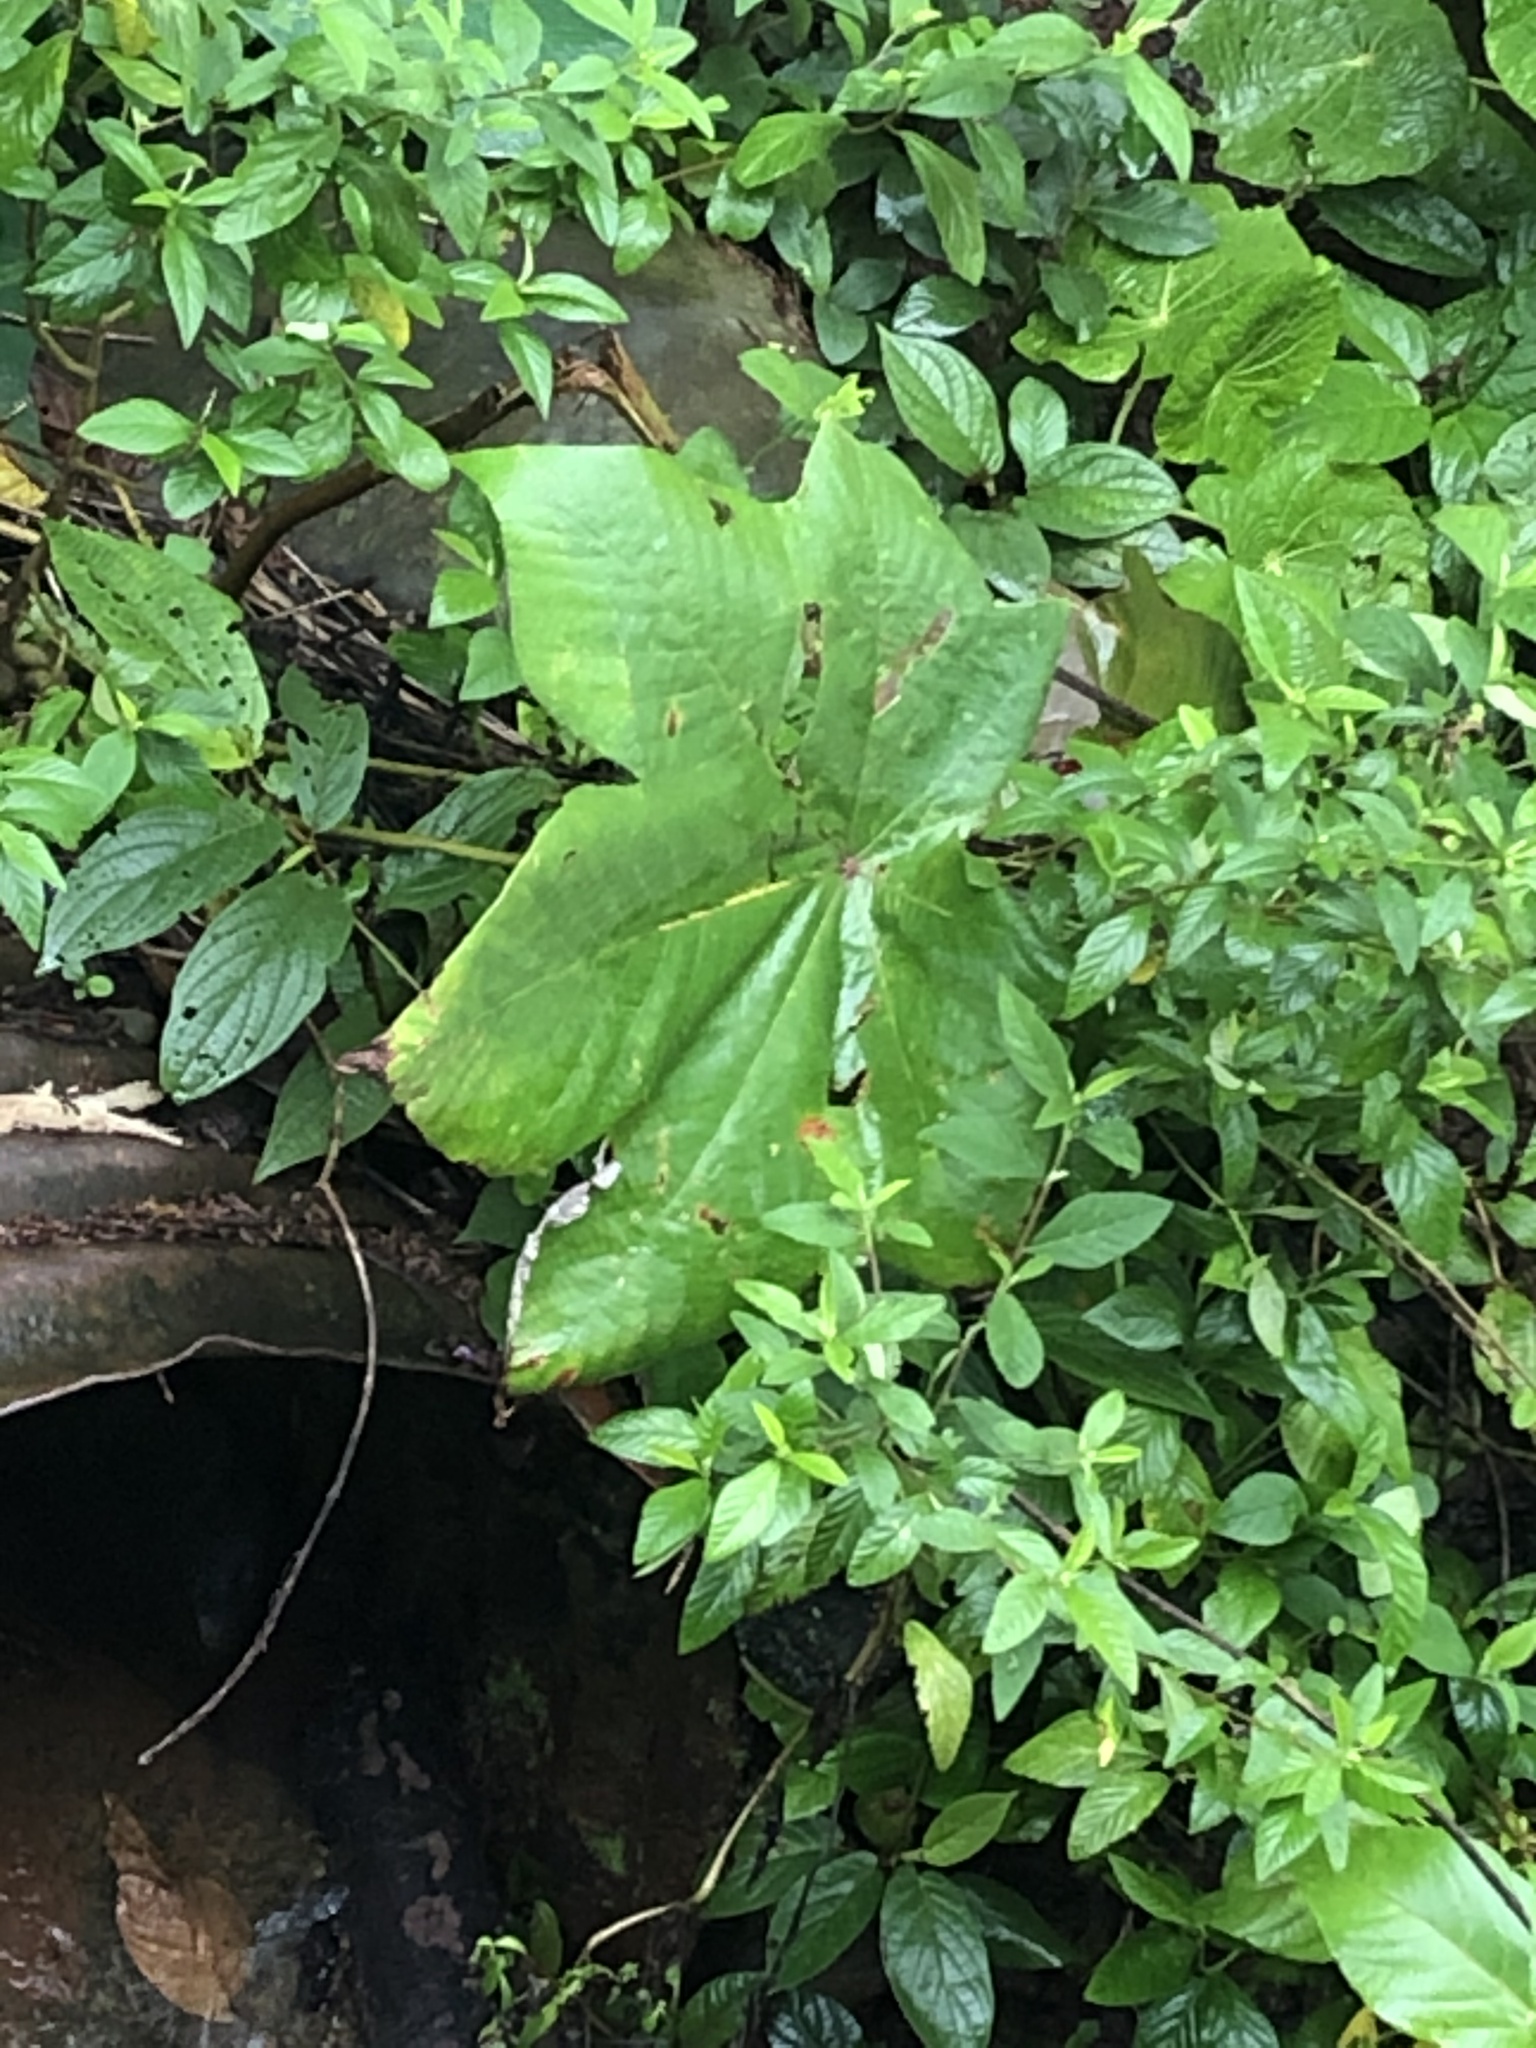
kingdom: Plantae
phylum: Tracheophyta
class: Magnoliopsida
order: Malpighiales
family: Euphorbiaceae
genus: Ricinus
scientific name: Ricinus communis
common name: Castor-oil-plant
